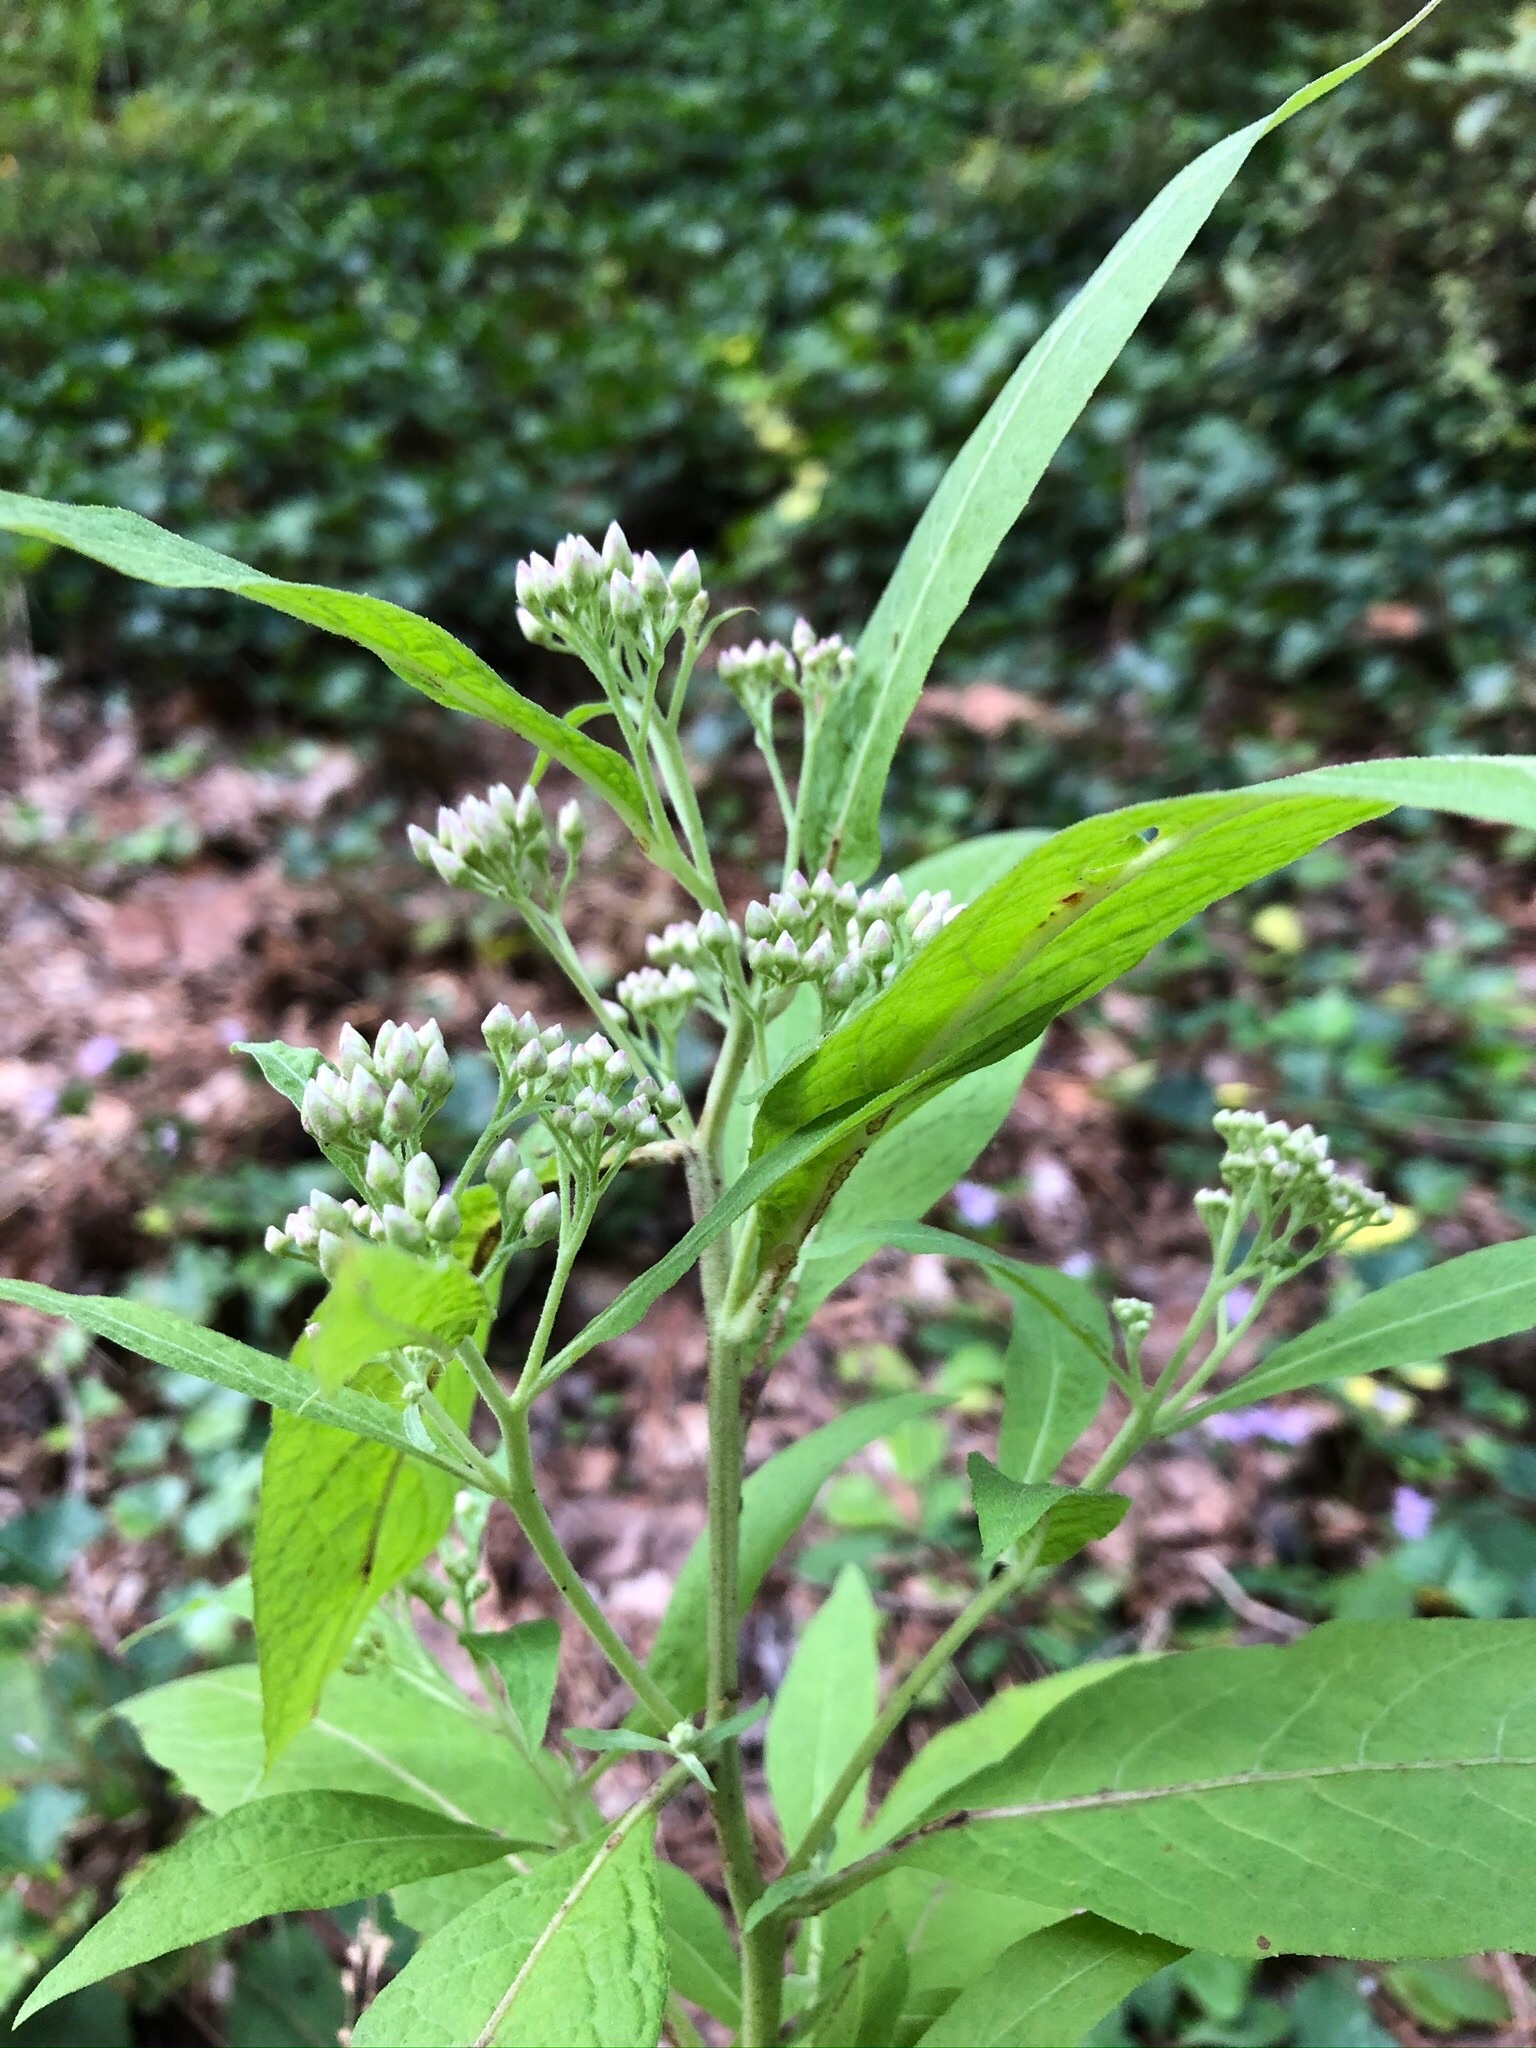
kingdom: Plantae
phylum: Tracheophyta
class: Magnoliopsida
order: Asterales
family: Asteraceae
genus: Pluchea
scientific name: Pluchea camphorata
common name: Camphor pluchea
